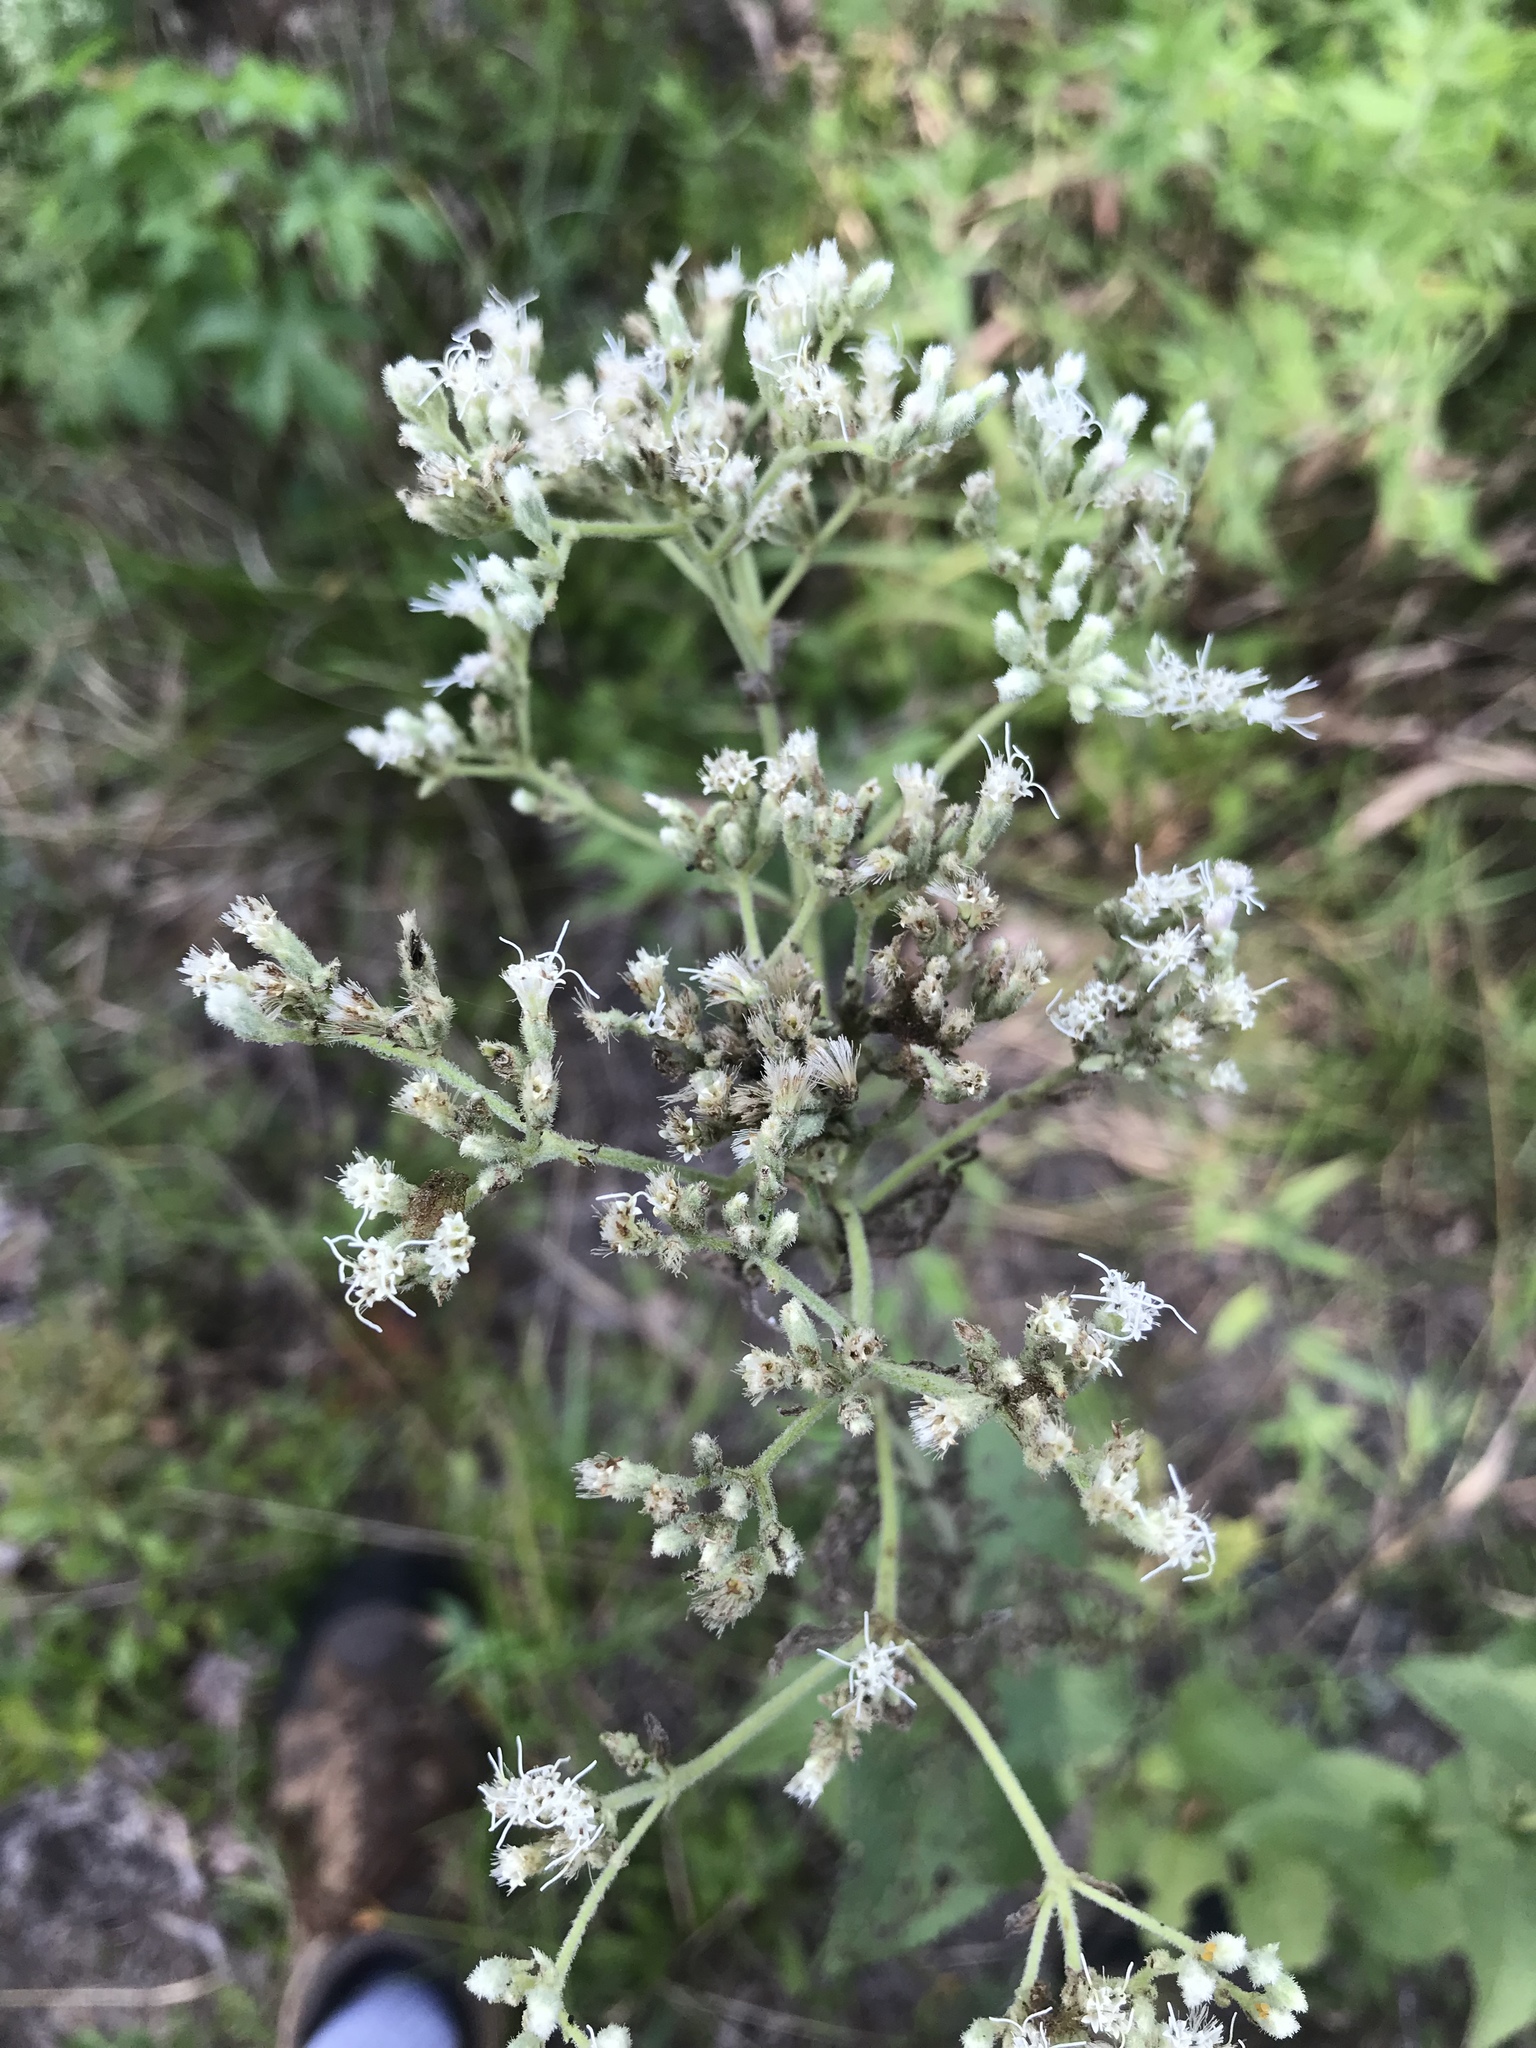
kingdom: Plantae
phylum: Tracheophyta
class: Magnoliopsida
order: Asterales
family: Asteraceae
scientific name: Asteraceae
